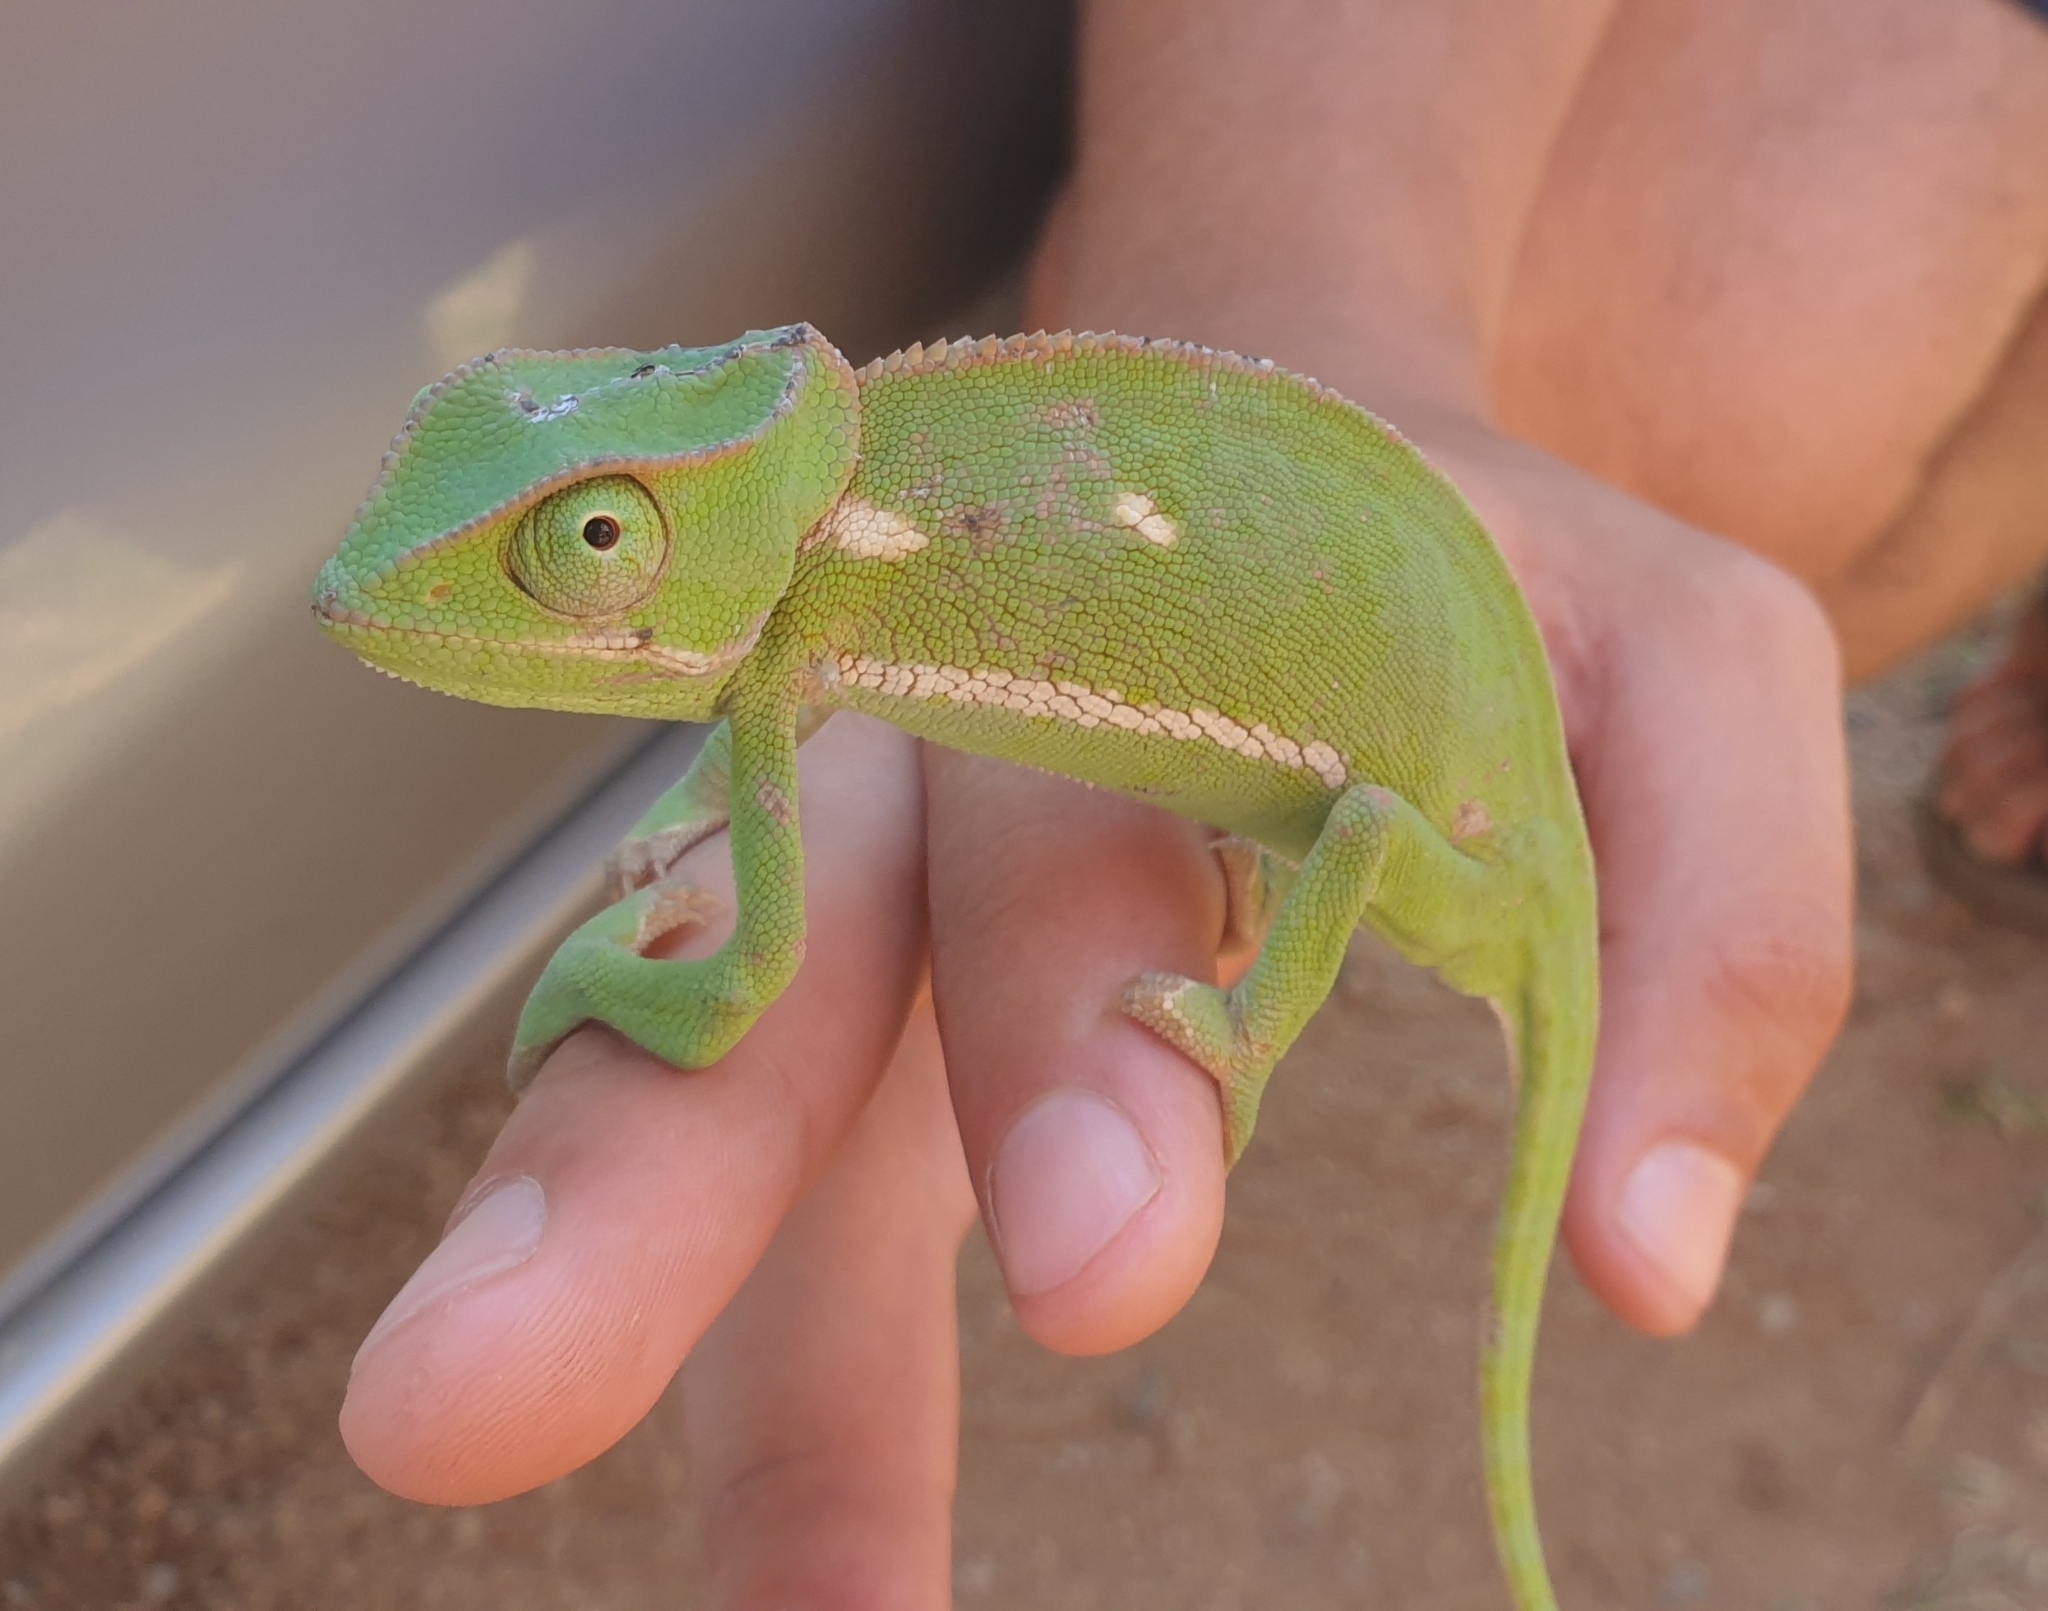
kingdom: Animalia
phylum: Chordata
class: Squamata
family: Chamaeleonidae
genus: Chamaeleo
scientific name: Chamaeleo dilepis
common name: Flapneck chameleon
